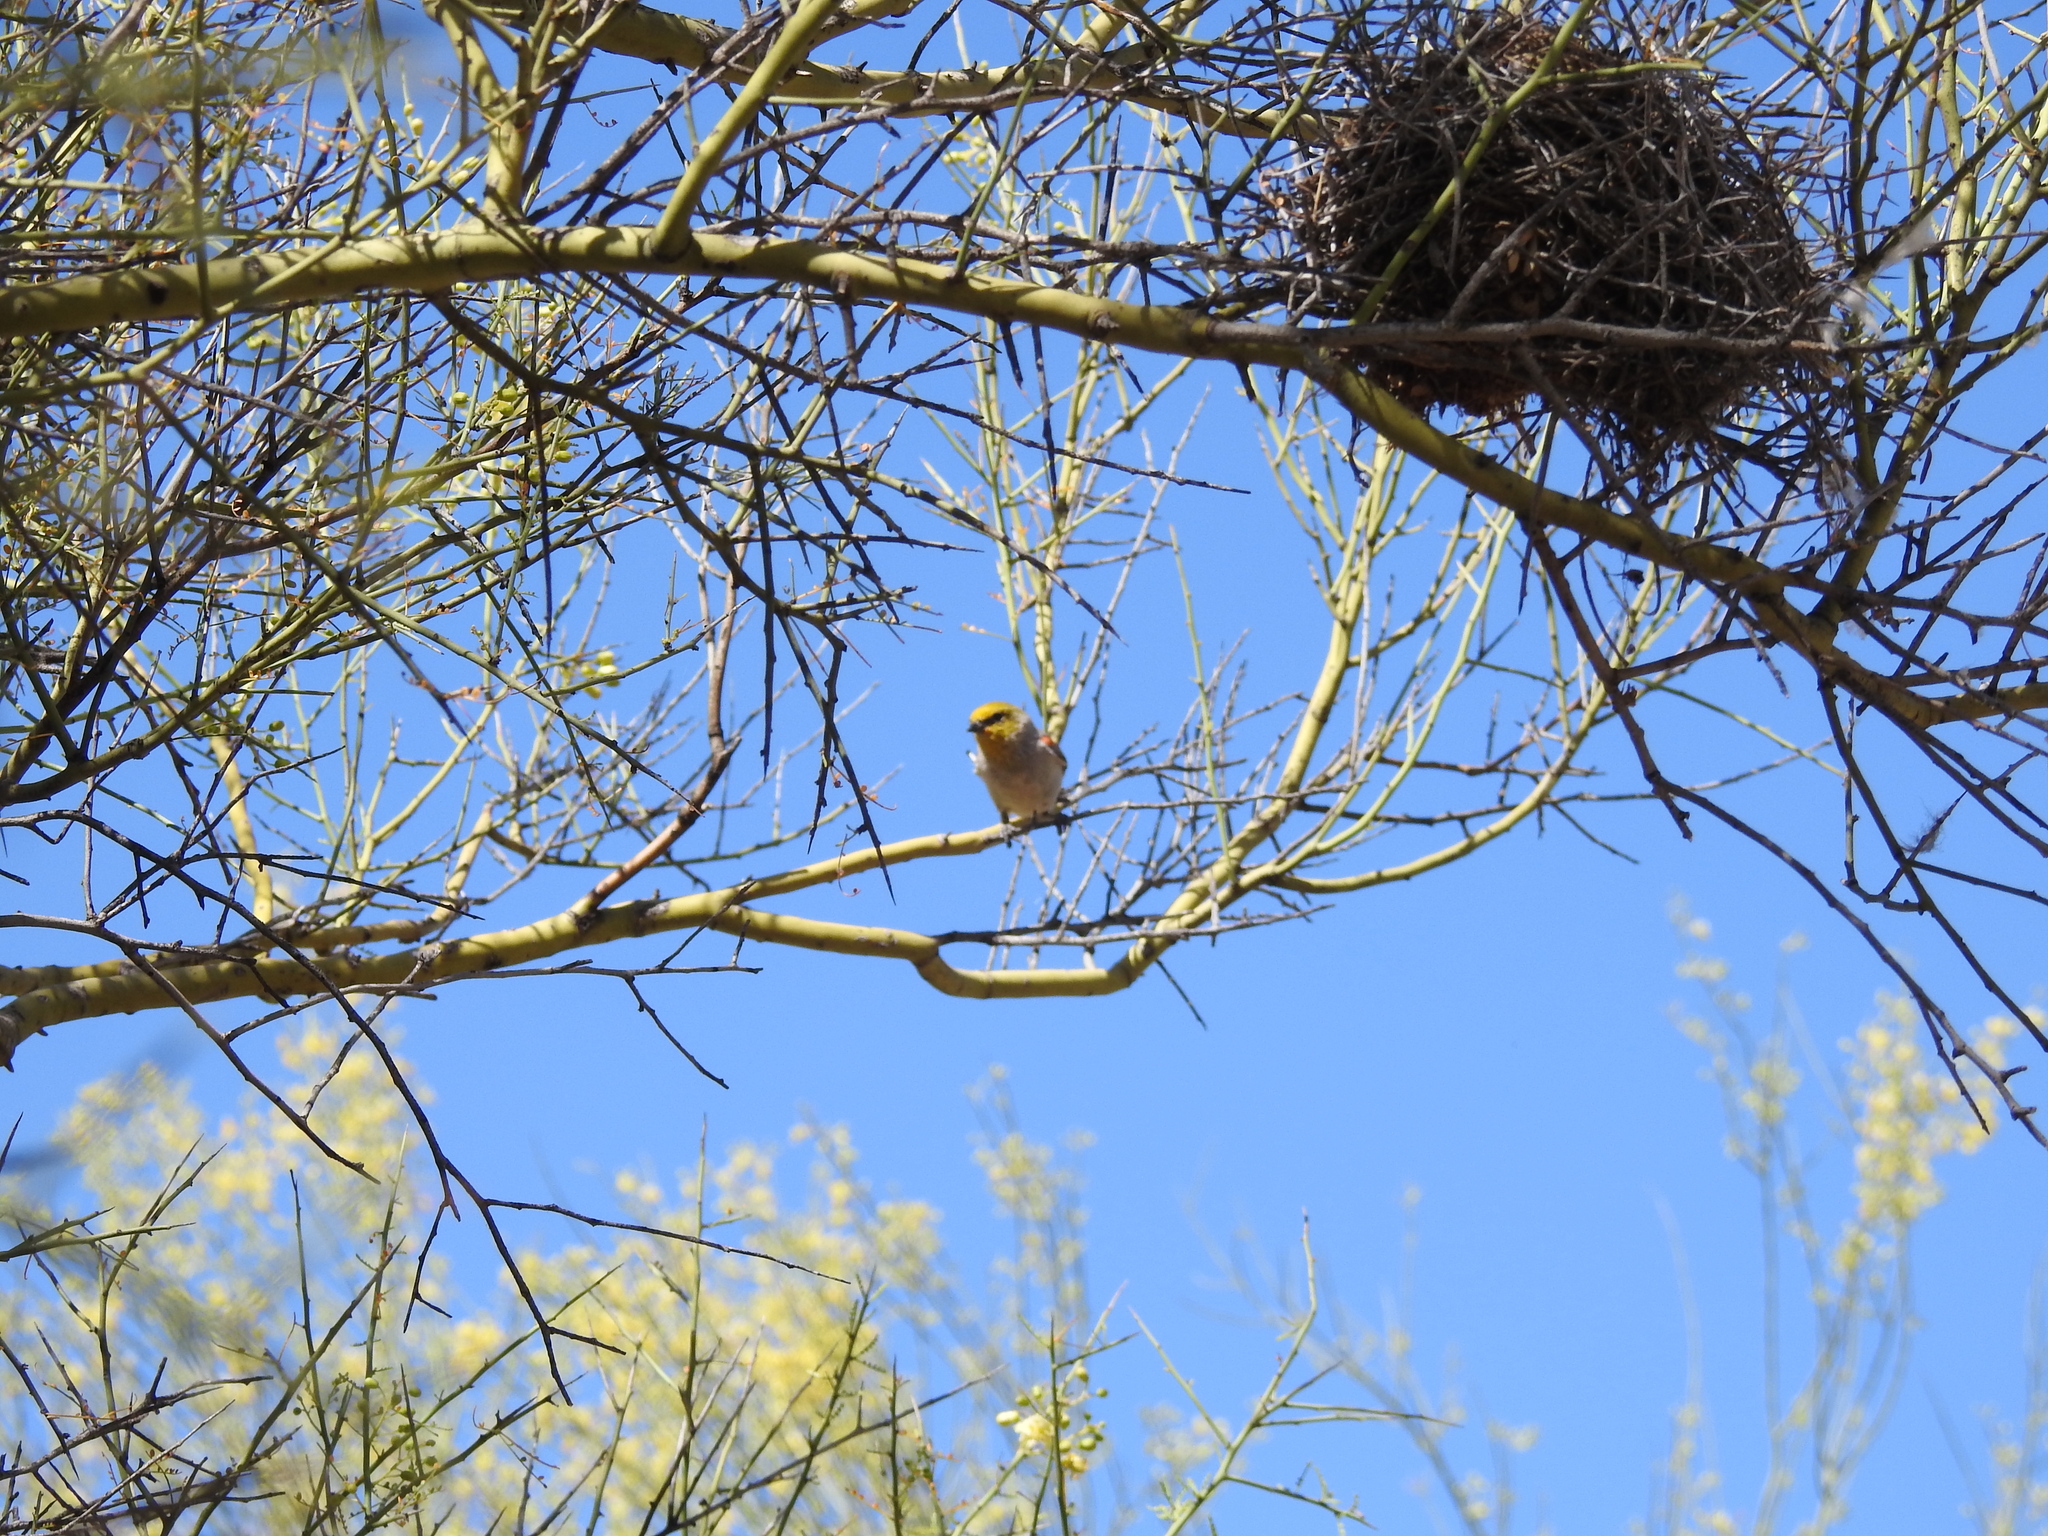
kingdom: Animalia
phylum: Chordata
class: Aves
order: Passeriformes
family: Remizidae
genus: Auriparus
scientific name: Auriparus flaviceps
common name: Verdin
